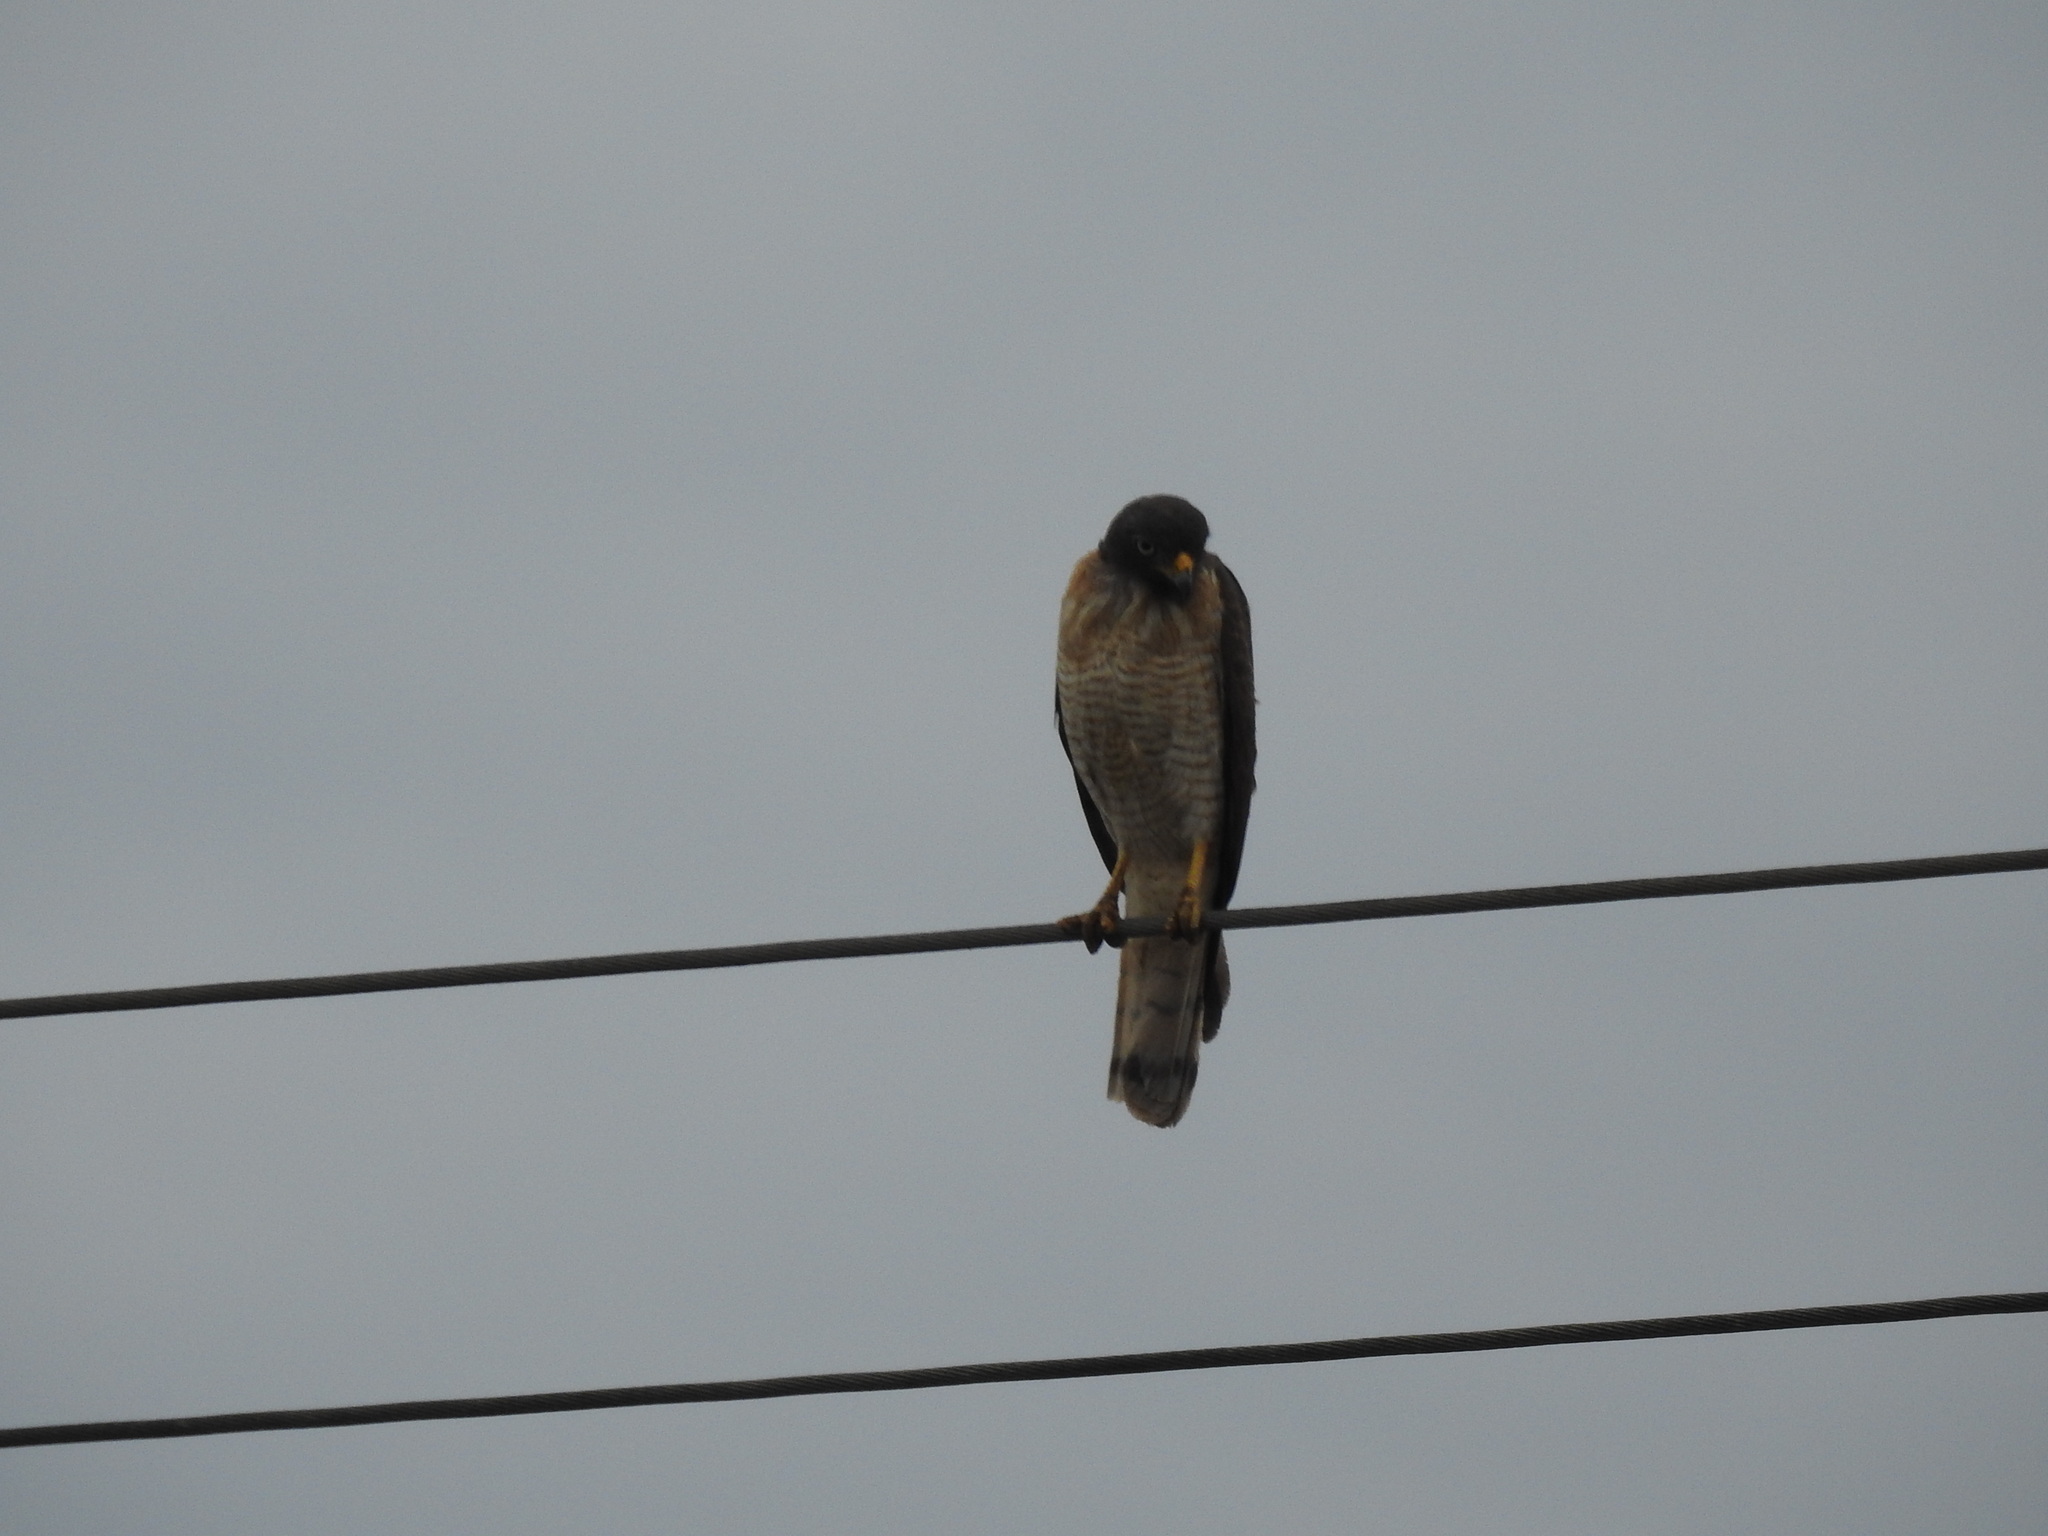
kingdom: Animalia
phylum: Chordata
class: Aves
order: Accipitriformes
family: Accipitridae
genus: Rupornis
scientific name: Rupornis magnirostris
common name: Roadside hawk
